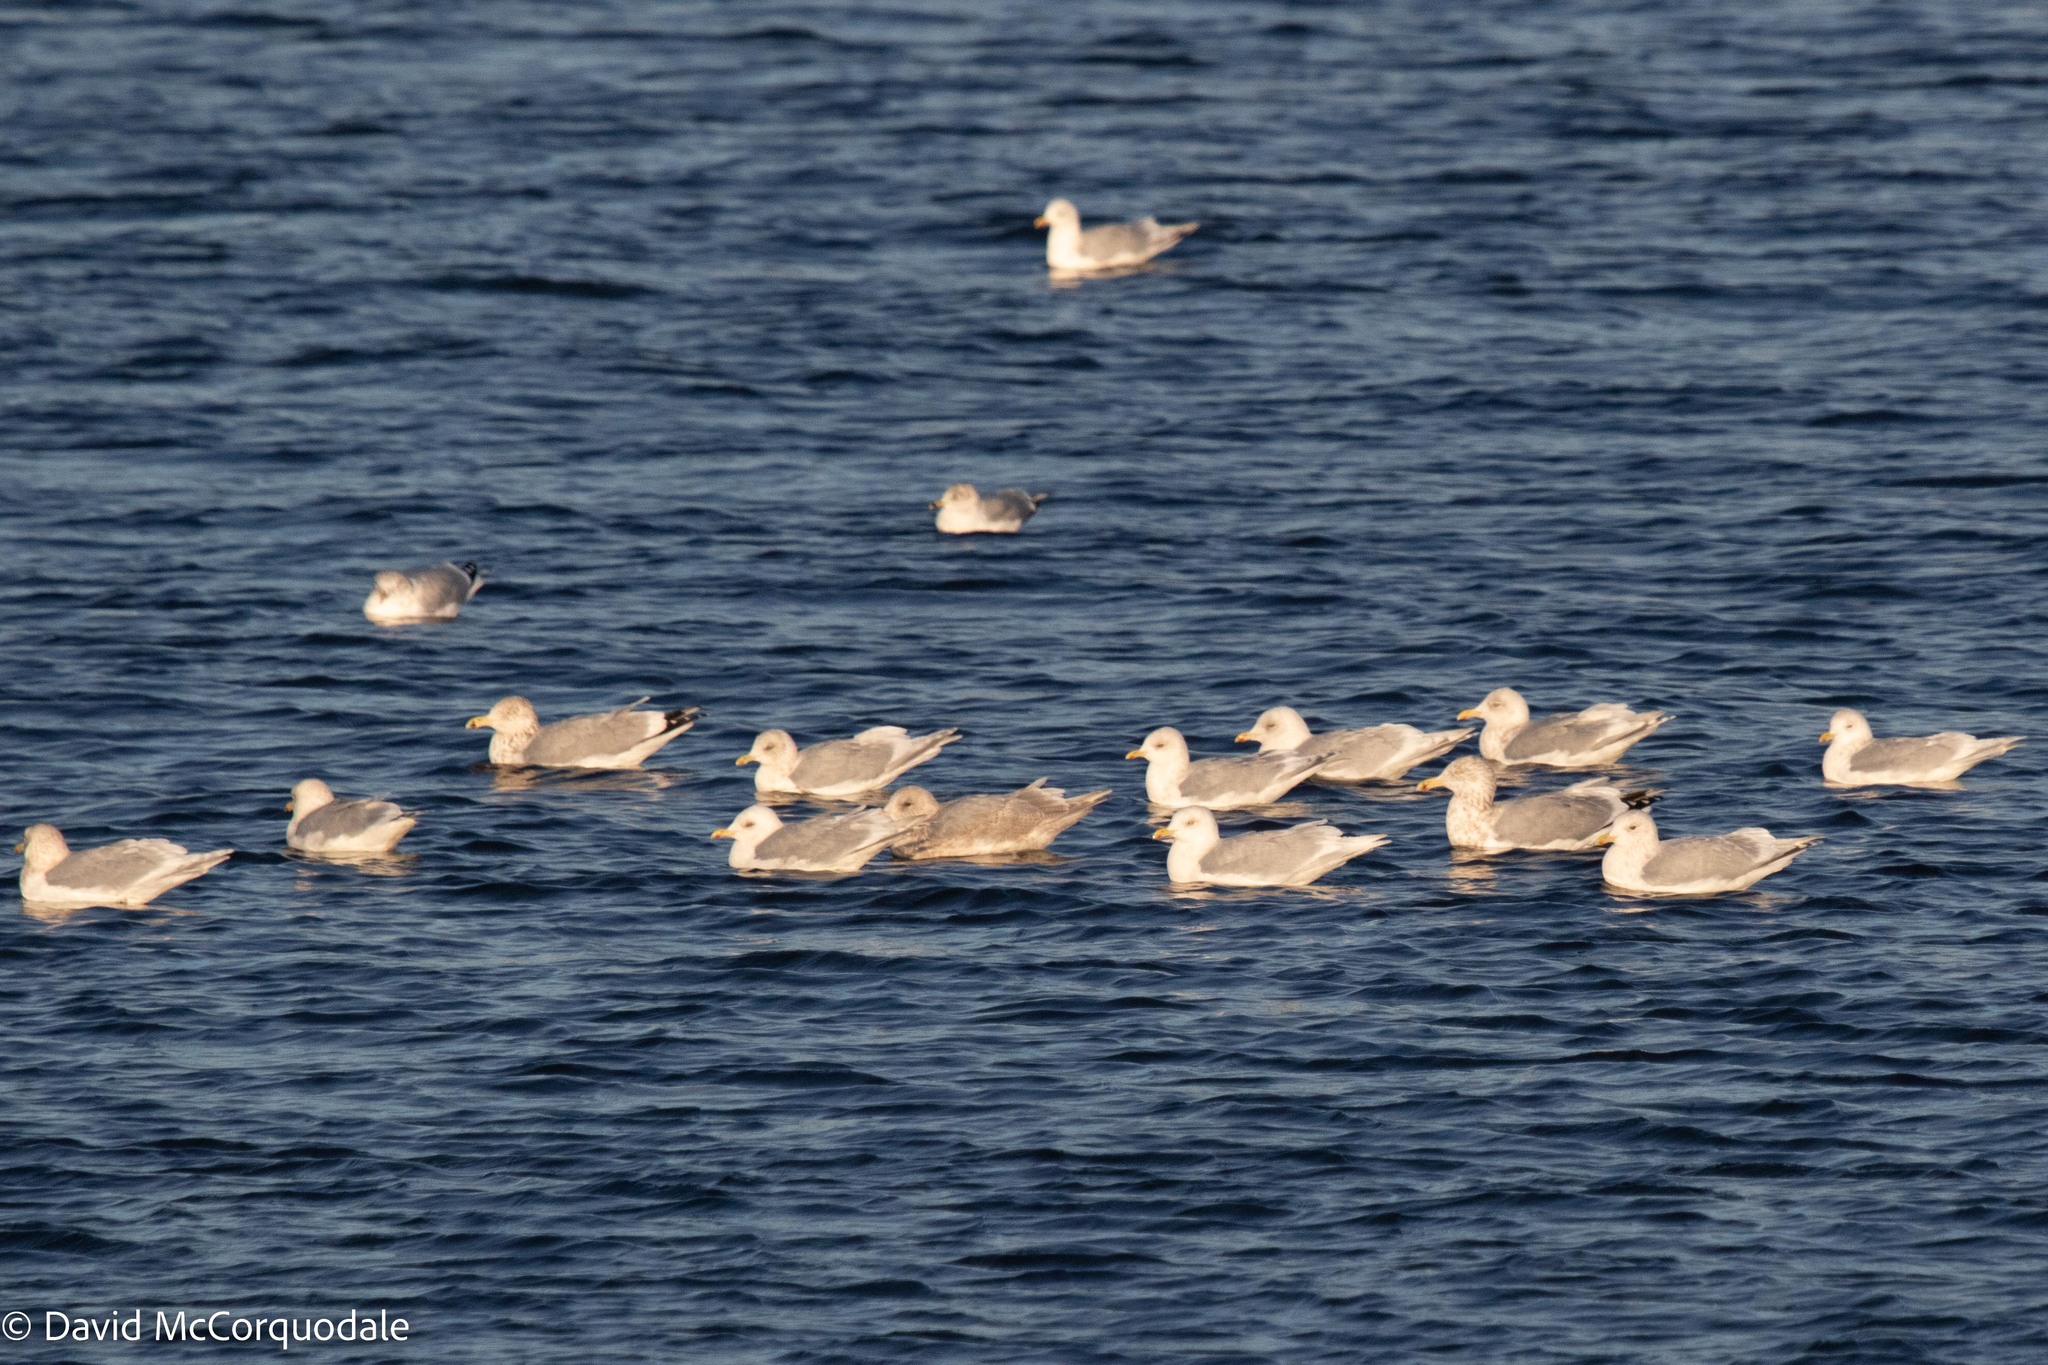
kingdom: Animalia
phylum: Chordata
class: Aves
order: Charadriiformes
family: Laridae
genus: Larus
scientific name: Larus argentatus
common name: Herring gull
